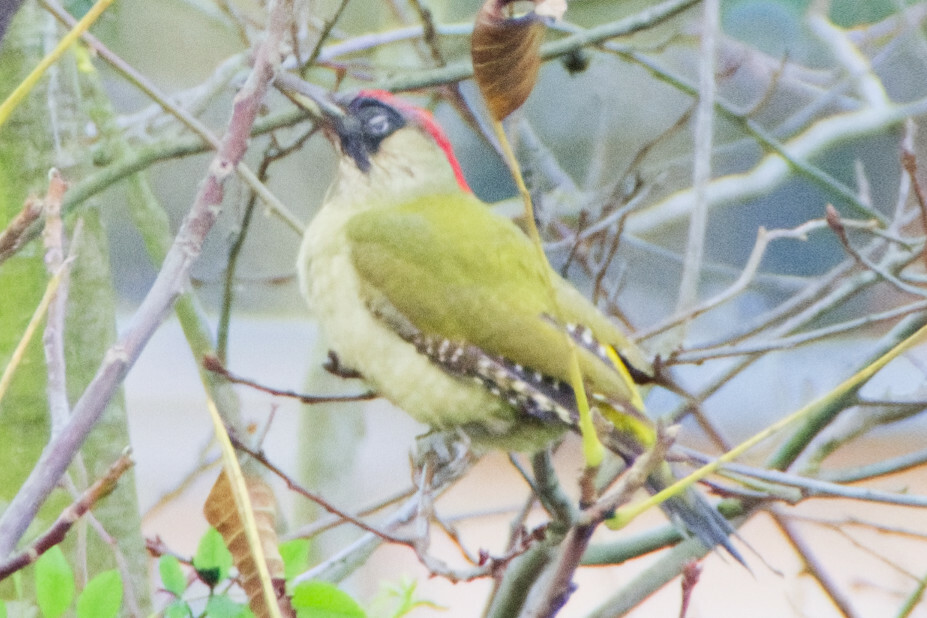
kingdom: Animalia
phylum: Chordata
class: Aves
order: Piciformes
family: Picidae
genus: Picus
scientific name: Picus viridis
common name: European green woodpecker
